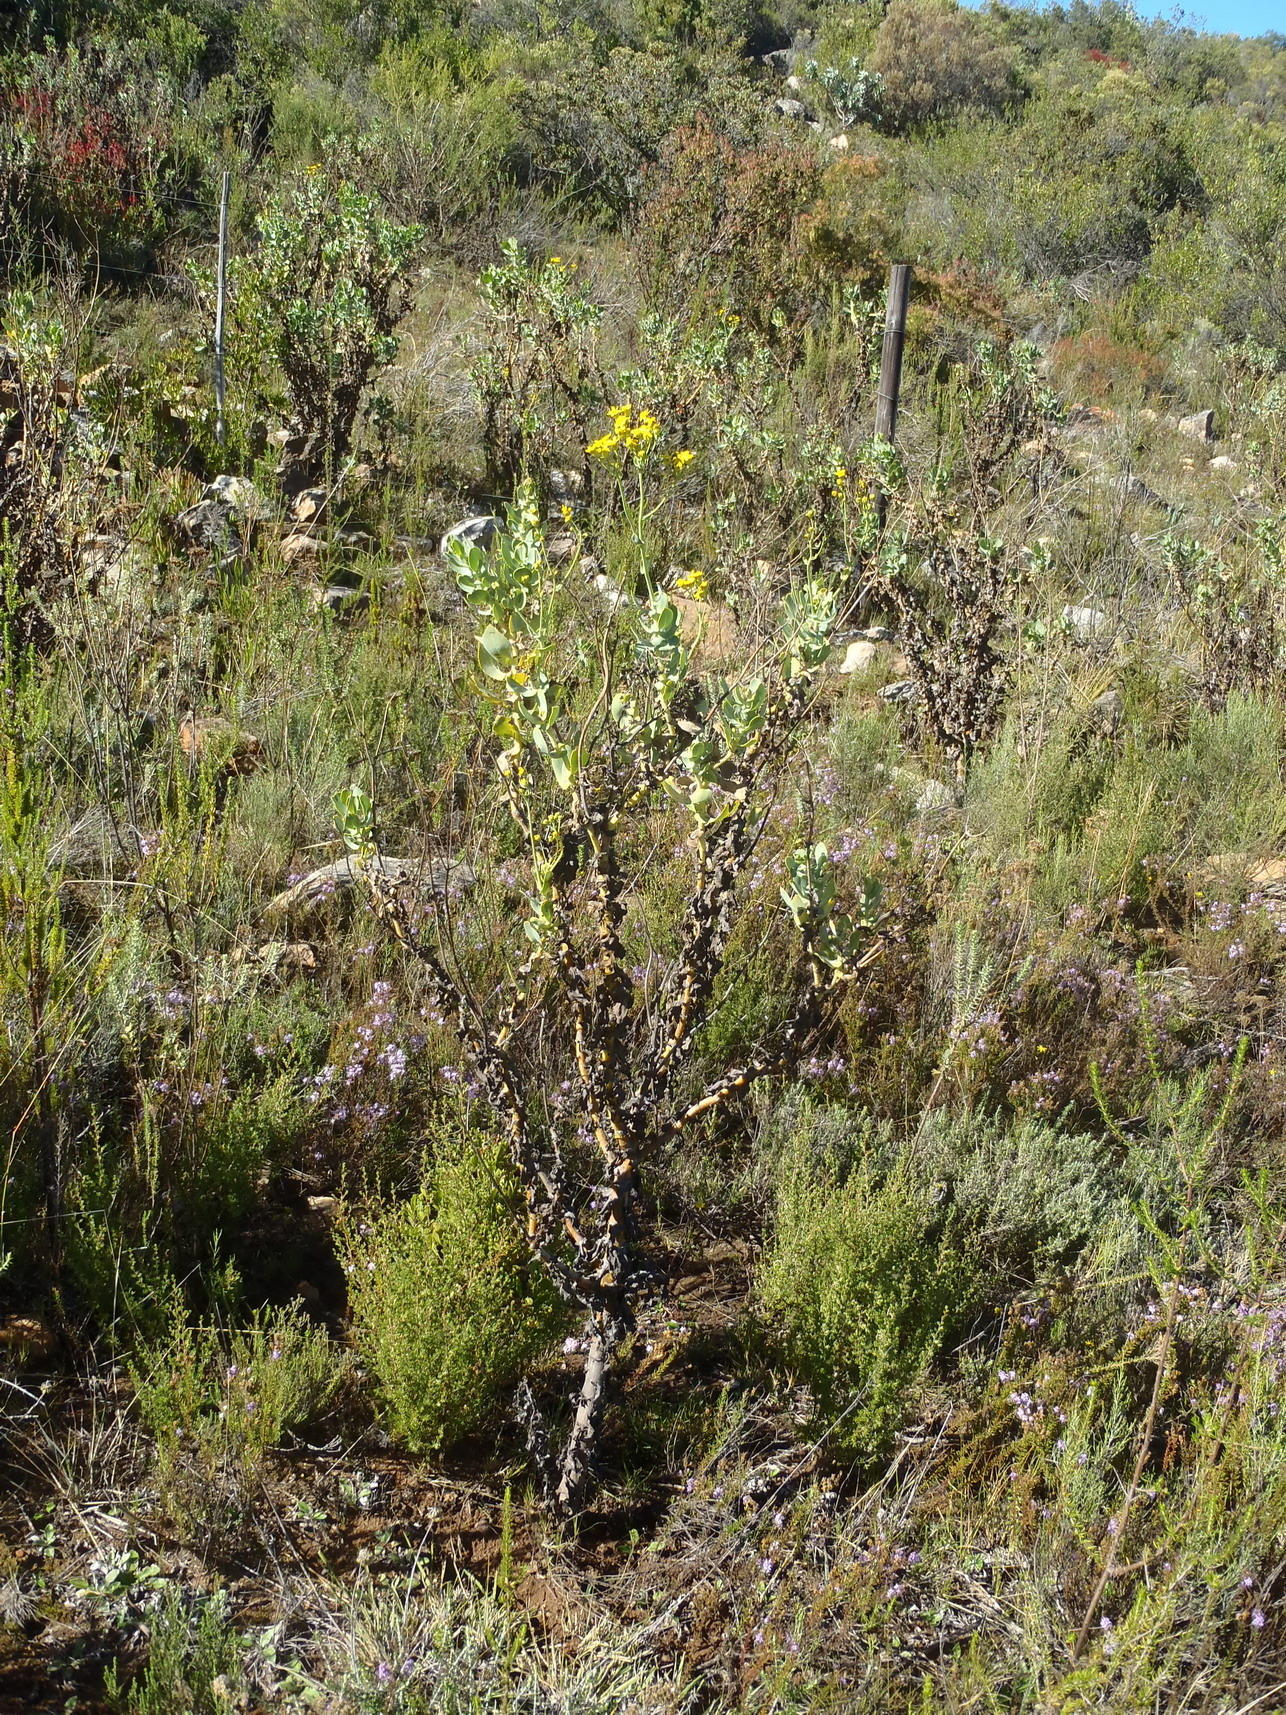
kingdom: Plantae
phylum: Tracheophyta
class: Magnoliopsida
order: Asterales
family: Asteraceae
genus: Othonna
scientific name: Othonna parviflora
